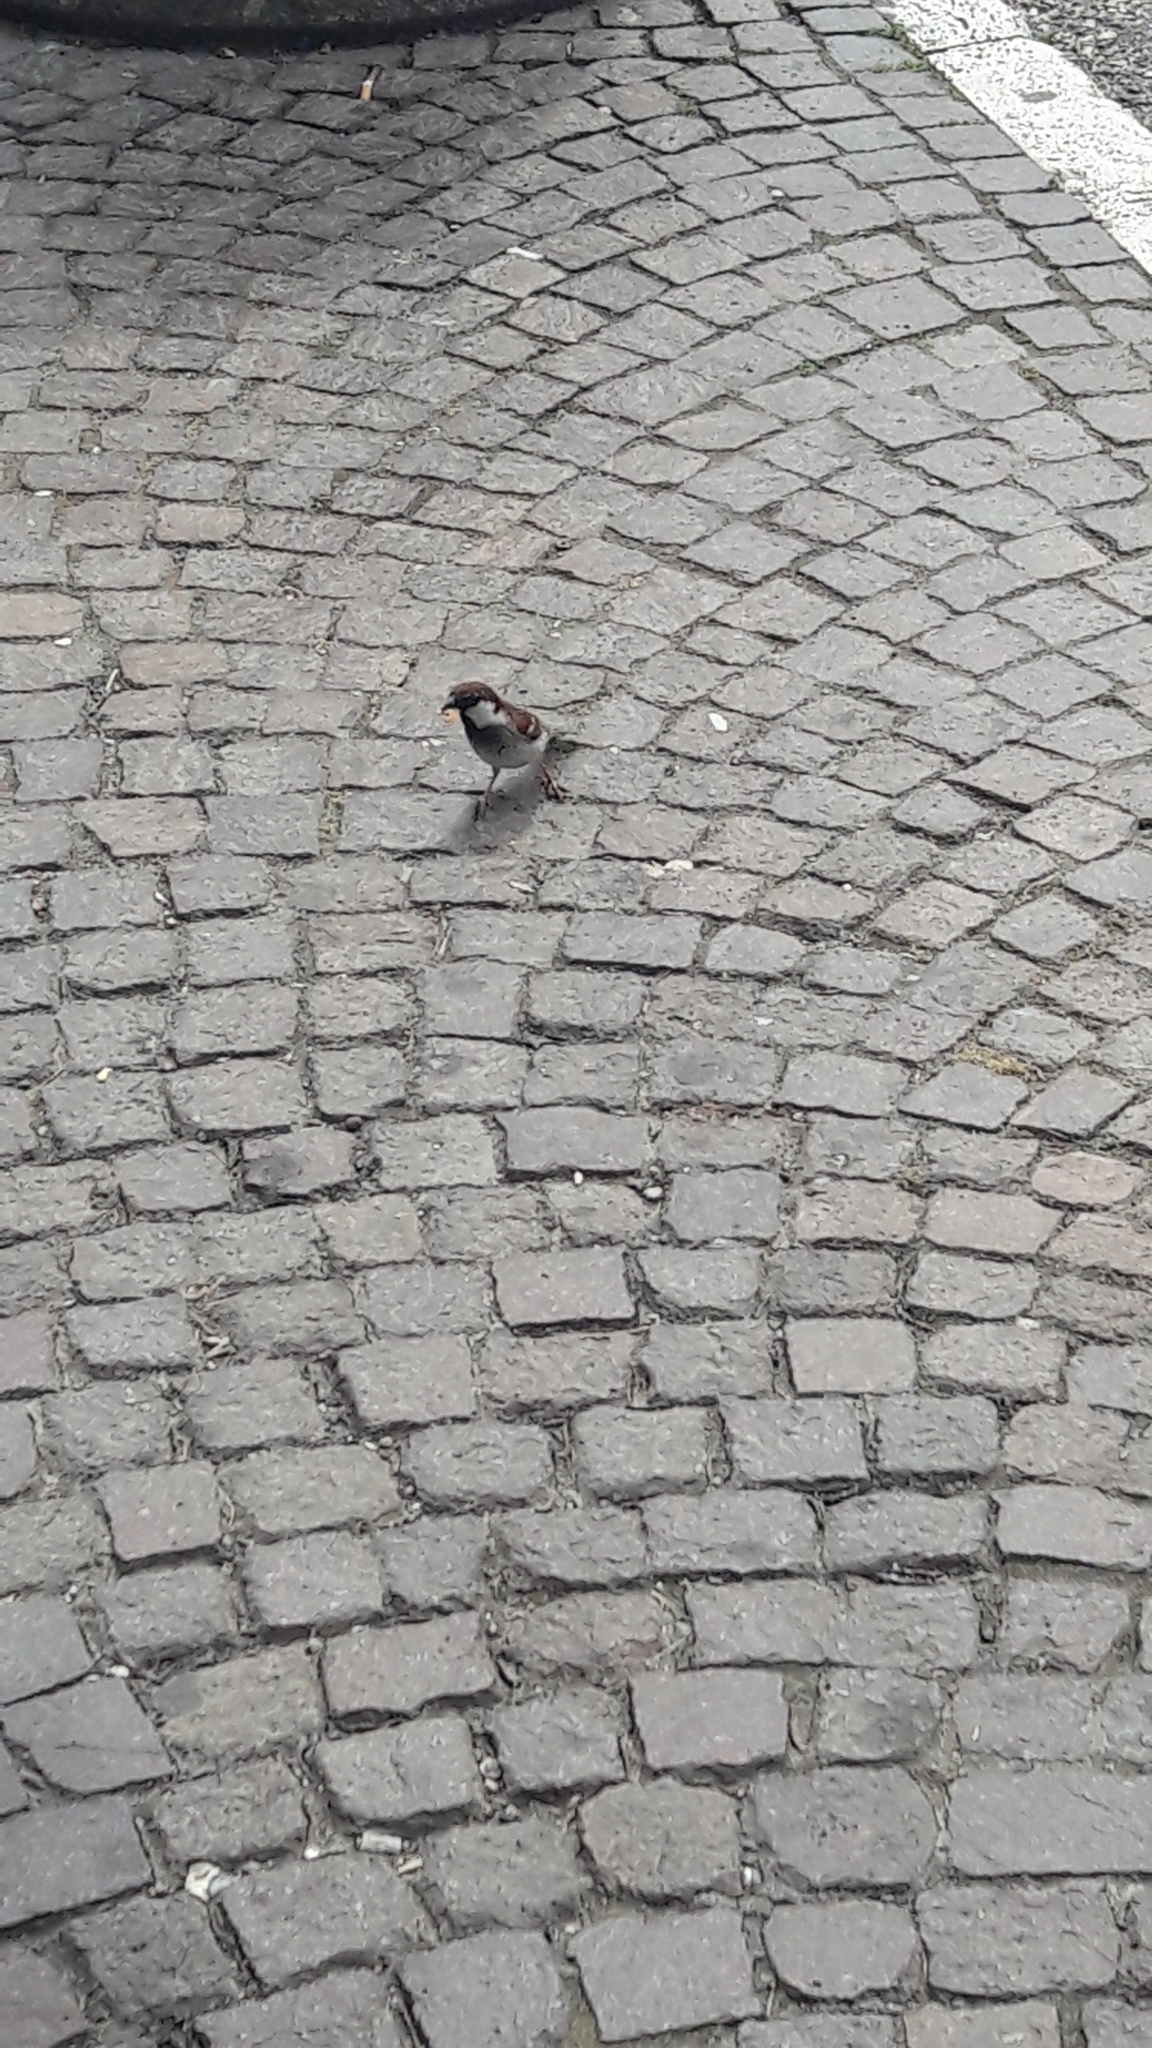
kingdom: Animalia
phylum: Chordata
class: Aves
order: Passeriformes
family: Passeridae
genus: Passer
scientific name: Passer italiae
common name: Italian sparrow
